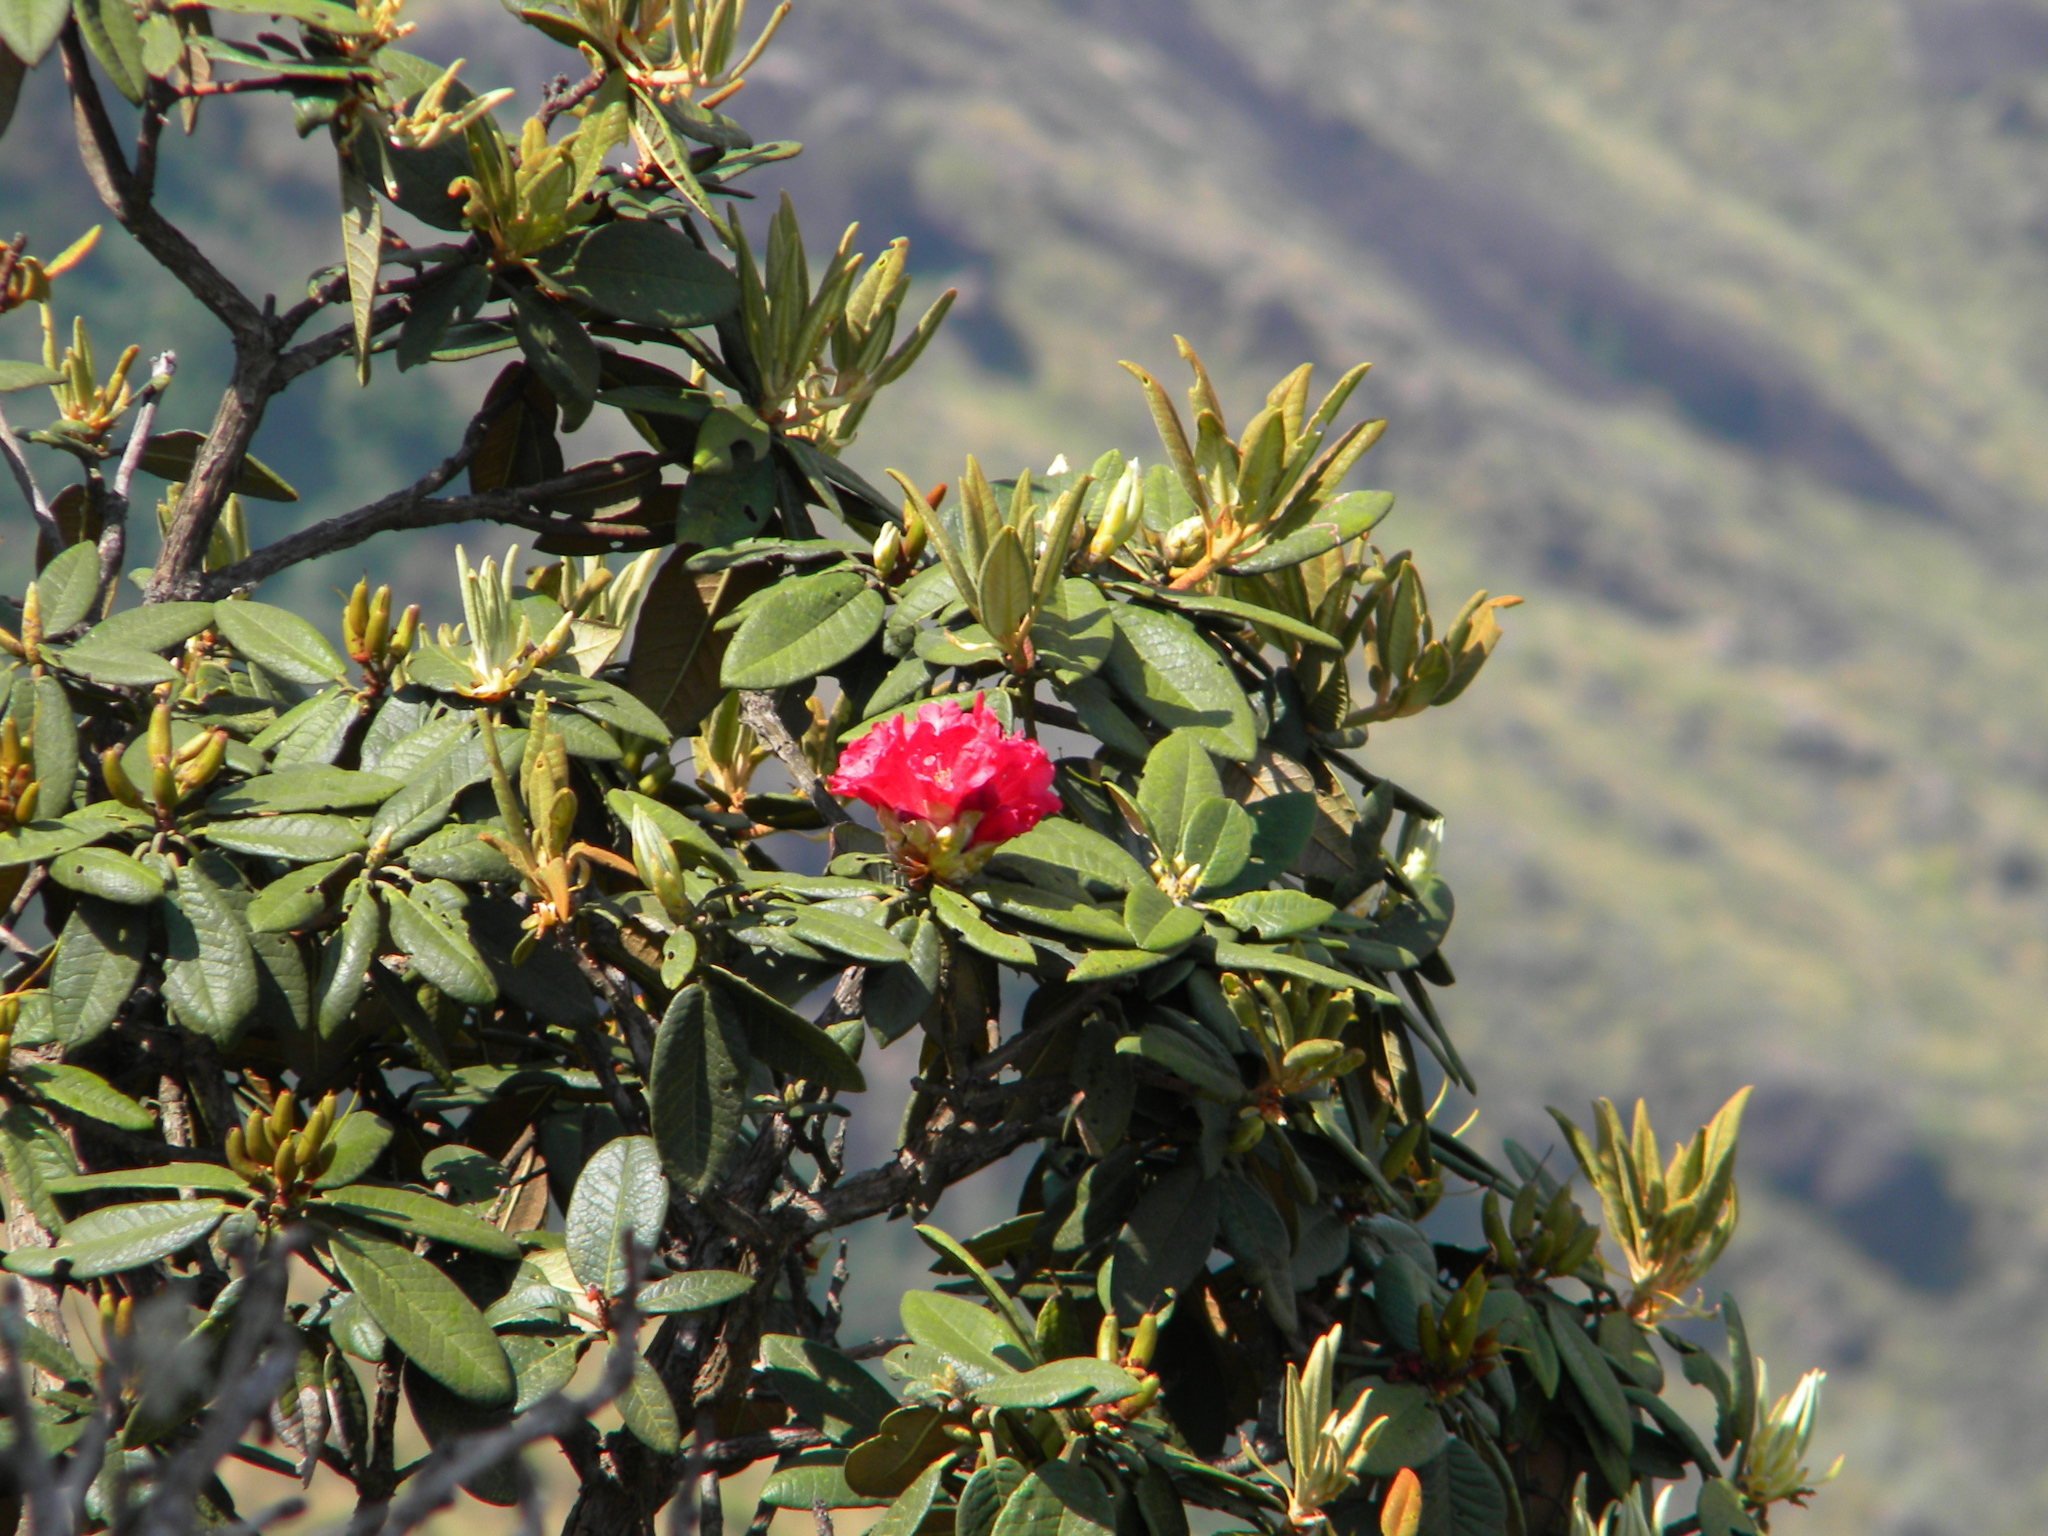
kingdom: Plantae
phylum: Tracheophyta
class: Magnoliopsida
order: Ericales
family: Ericaceae
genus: Rhododendron
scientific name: Rhododendron arboreum
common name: Tree rhododendron
